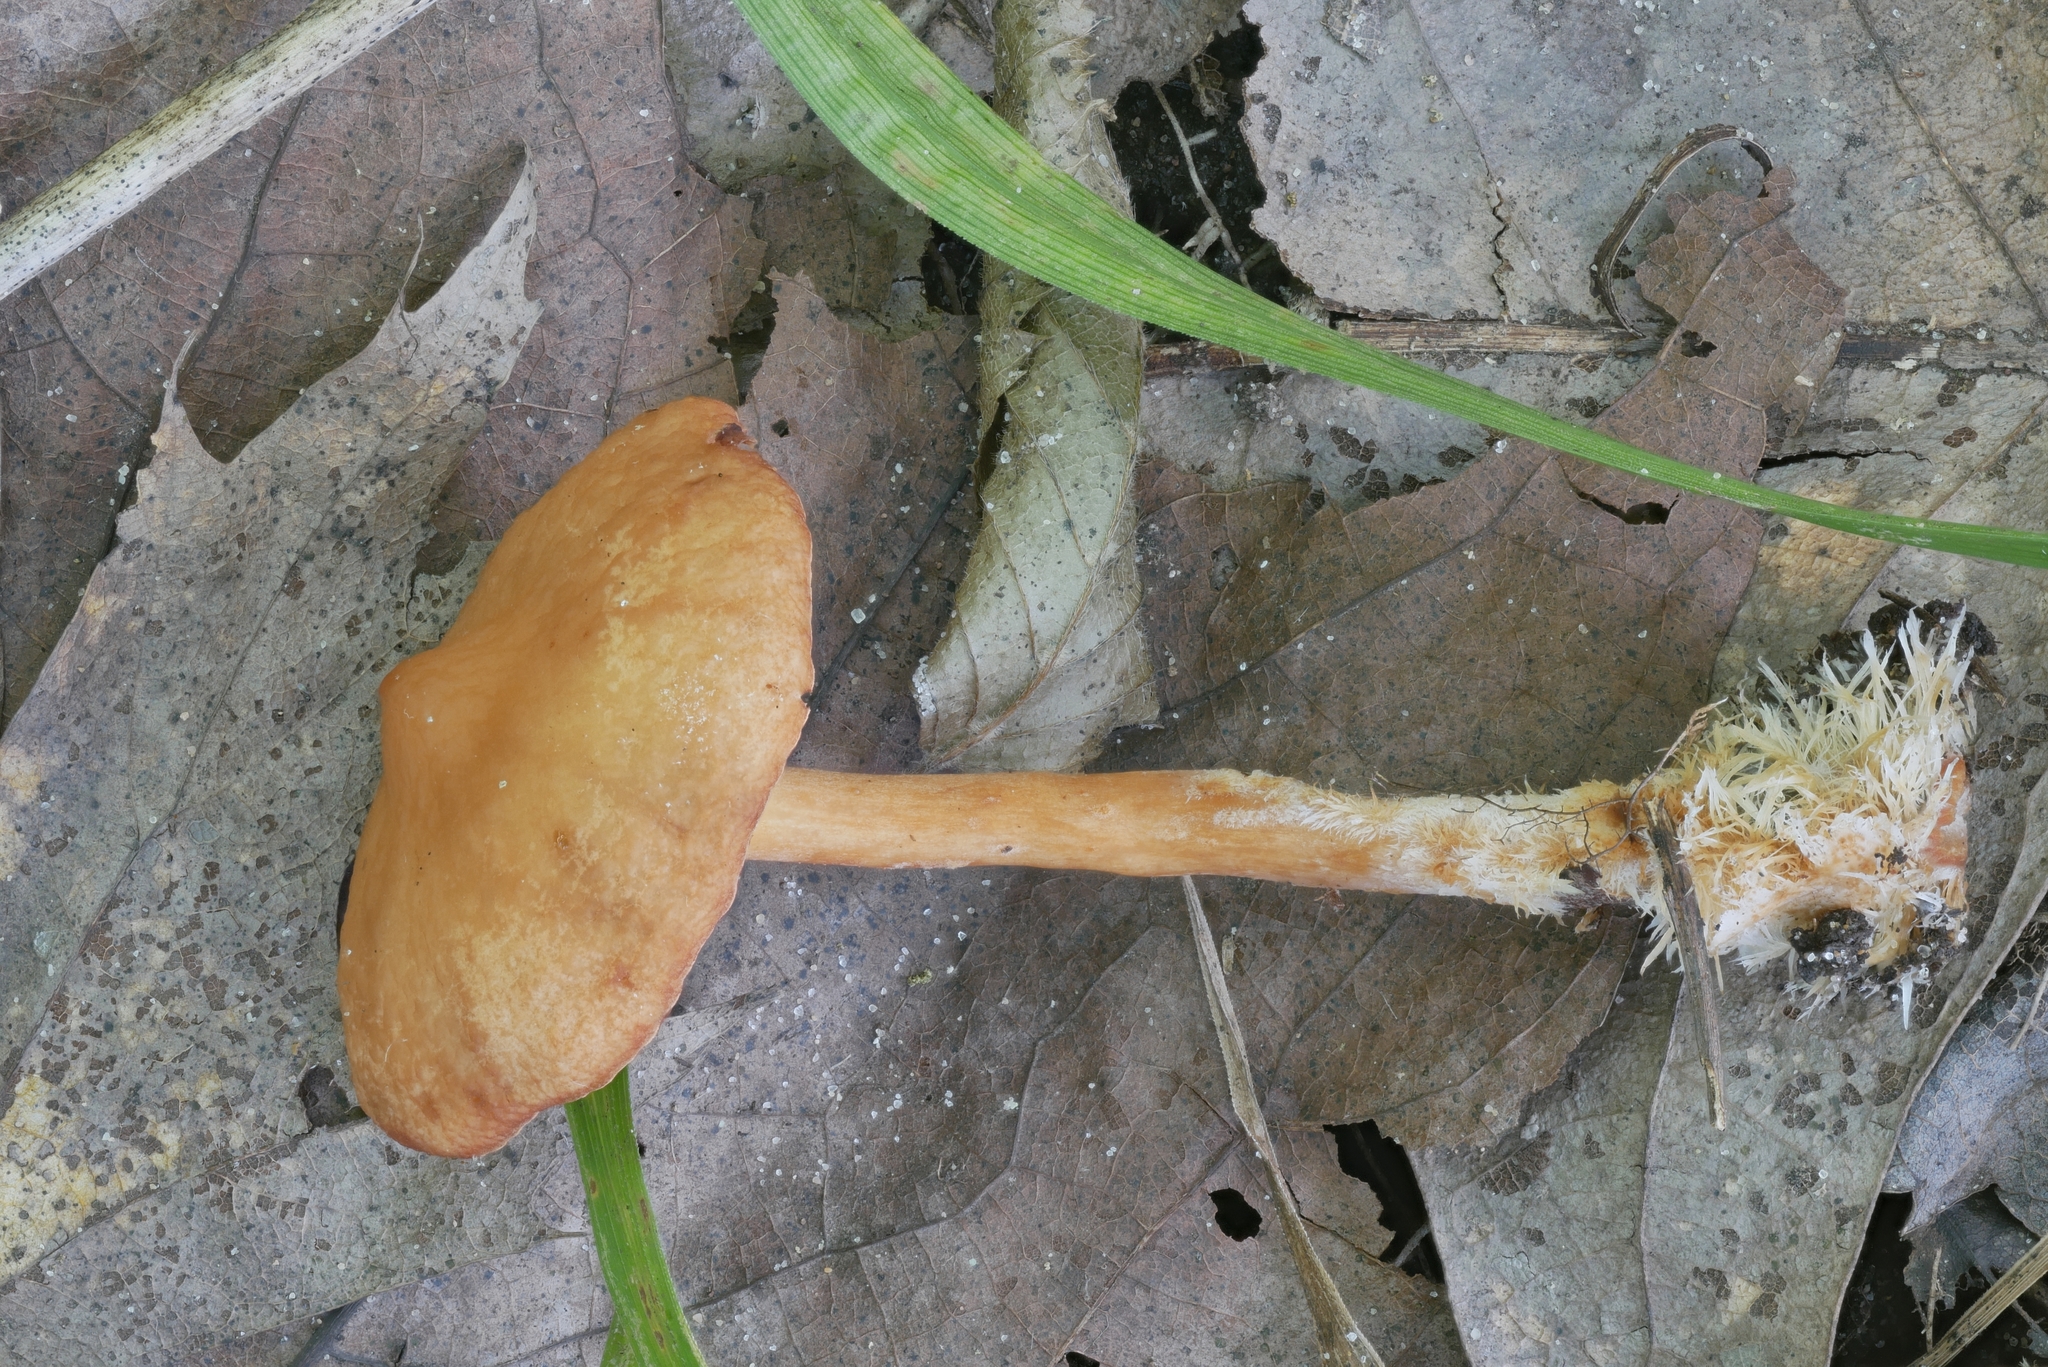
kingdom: Fungi
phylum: Basidiomycota
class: Agaricomycetes
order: Russulales
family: Russulaceae
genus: Lactarius
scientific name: Lactarius subserifluus
